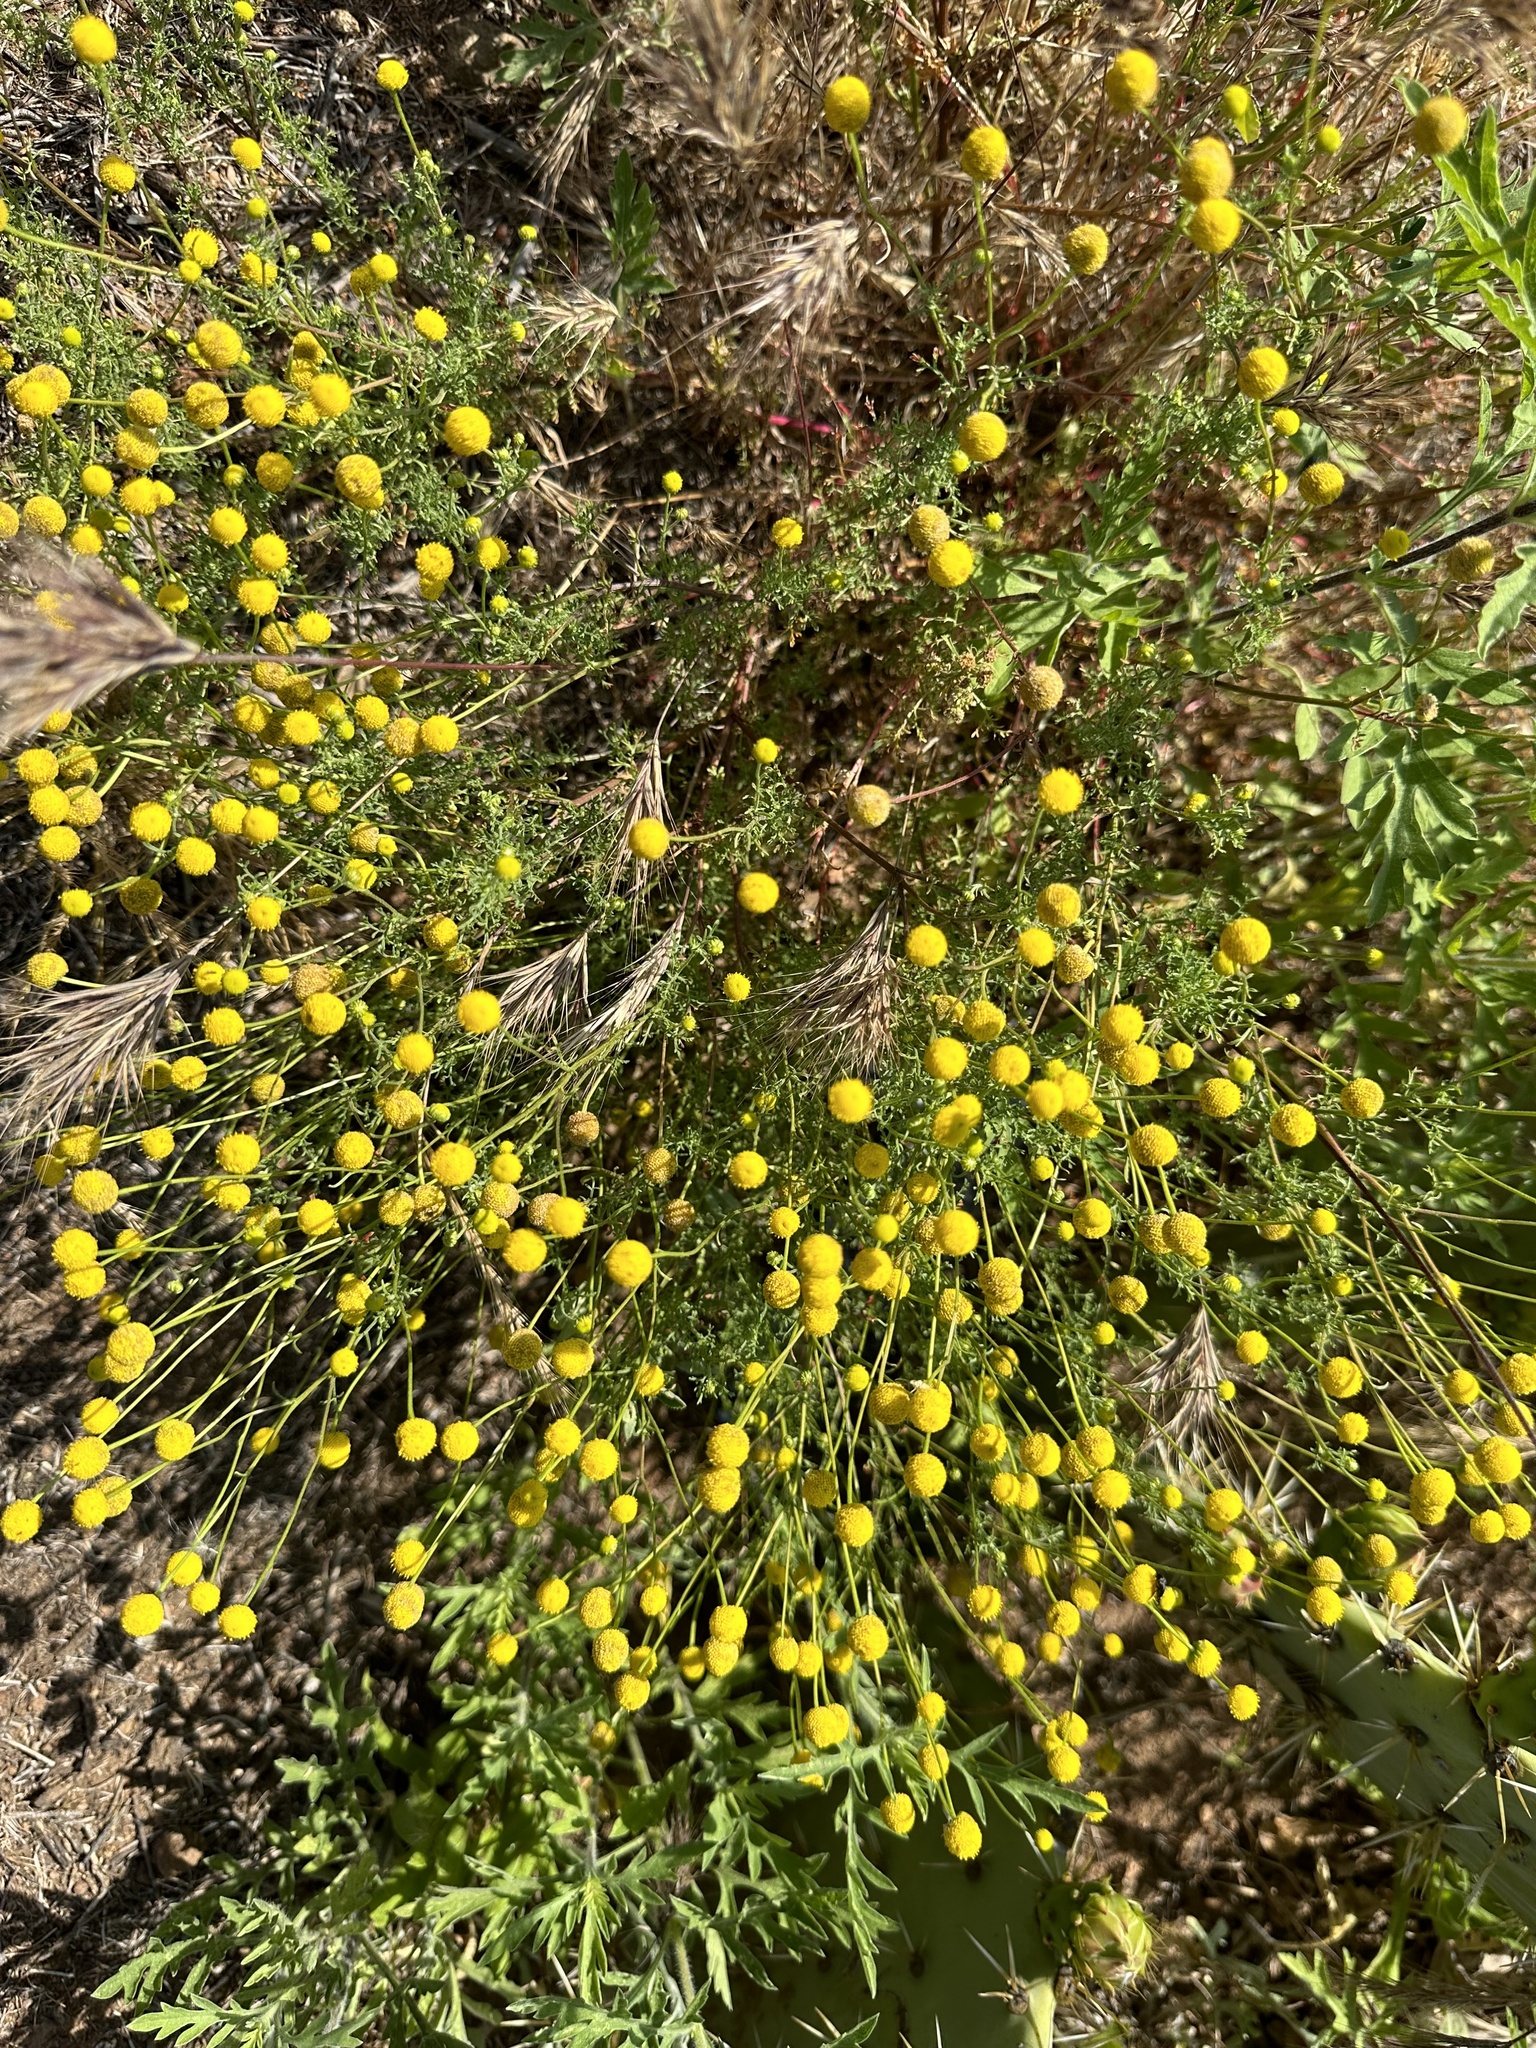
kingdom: Plantae
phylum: Tracheophyta
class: Magnoliopsida
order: Asterales
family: Asteraceae
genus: Oncosiphon
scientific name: Oncosiphon pilulifer
